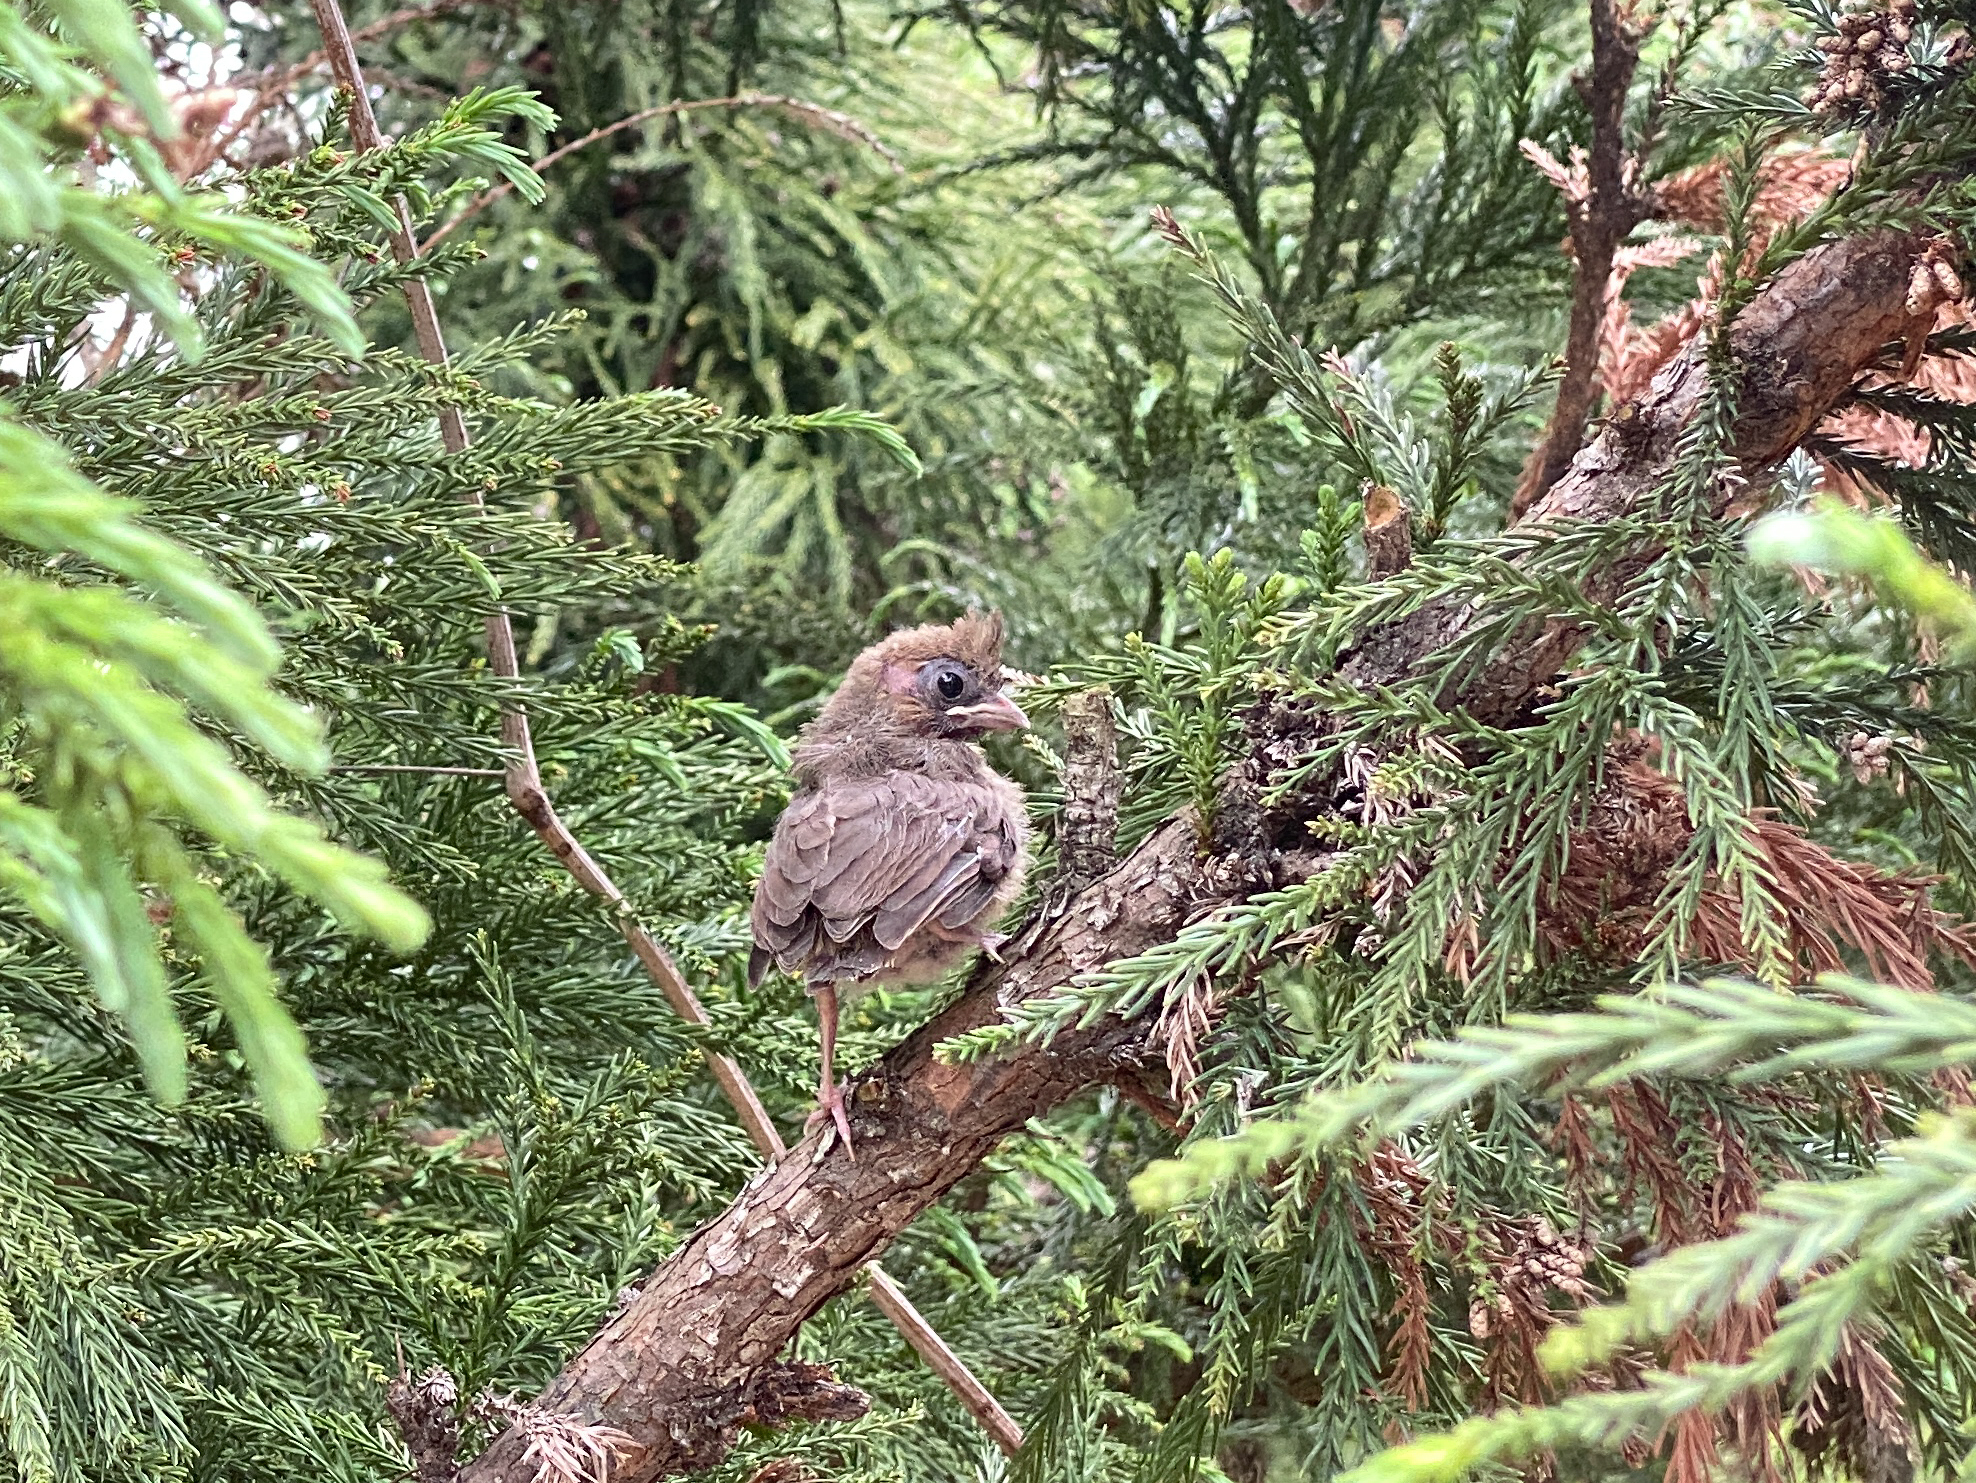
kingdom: Animalia
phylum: Chordata
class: Aves
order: Passeriformes
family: Cardinalidae
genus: Cardinalis
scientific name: Cardinalis cardinalis
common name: Northern cardinal
